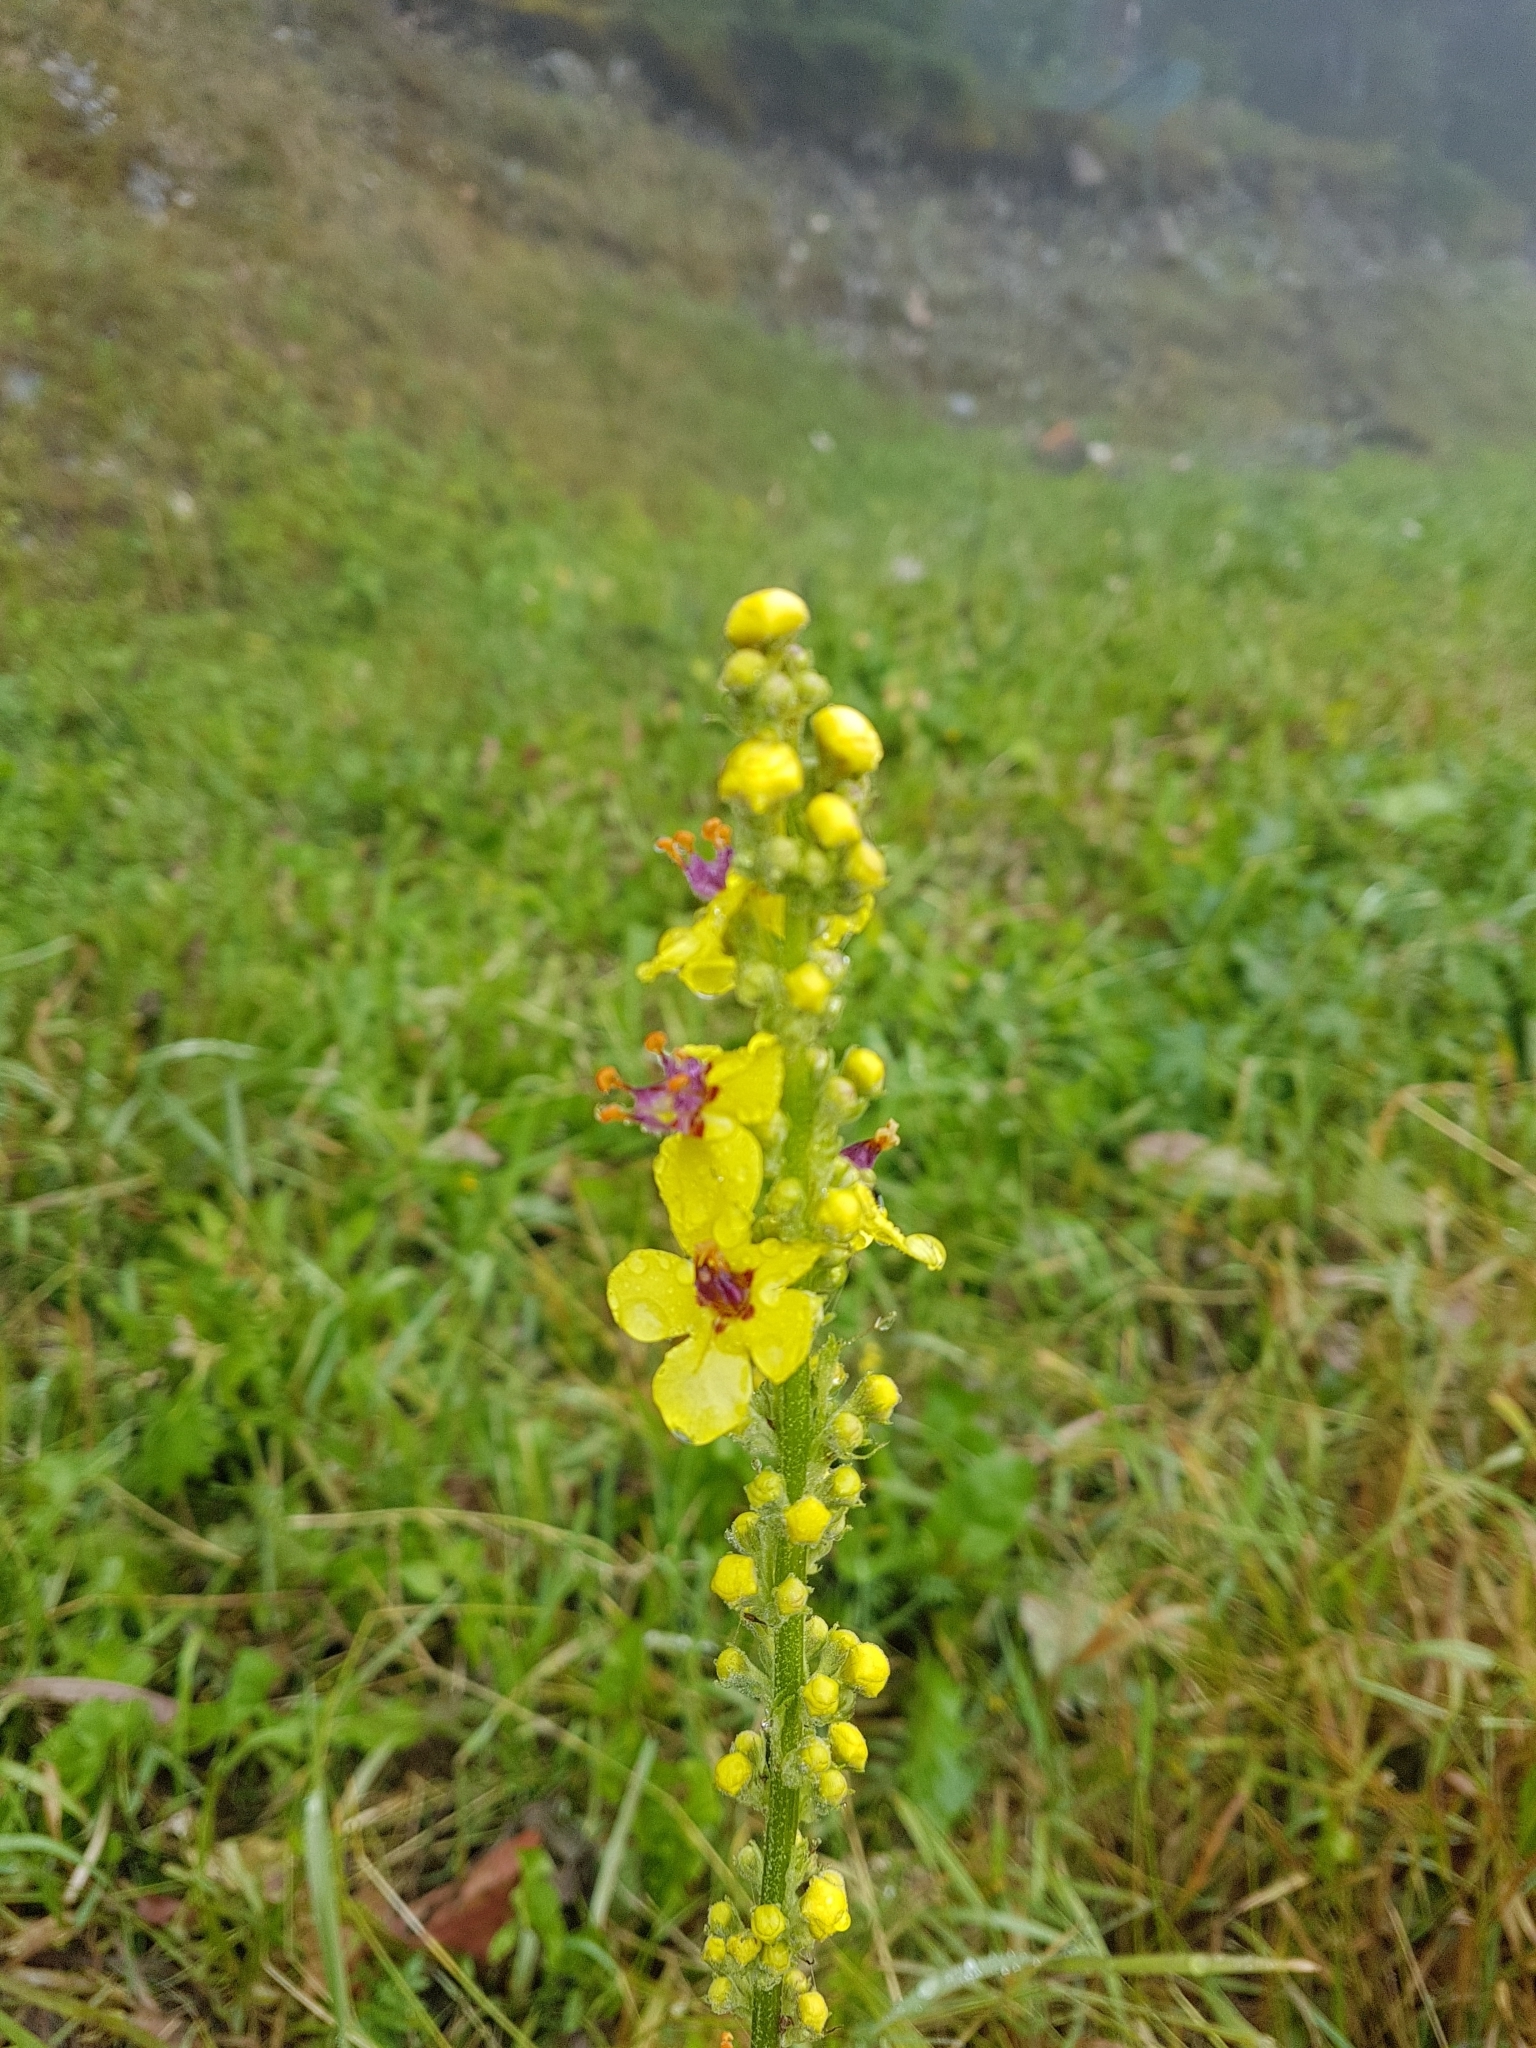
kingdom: Plantae
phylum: Tracheophyta
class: Magnoliopsida
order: Lamiales
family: Scrophulariaceae
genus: Verbascum
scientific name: Verbascum nigrum
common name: Dark mullein
